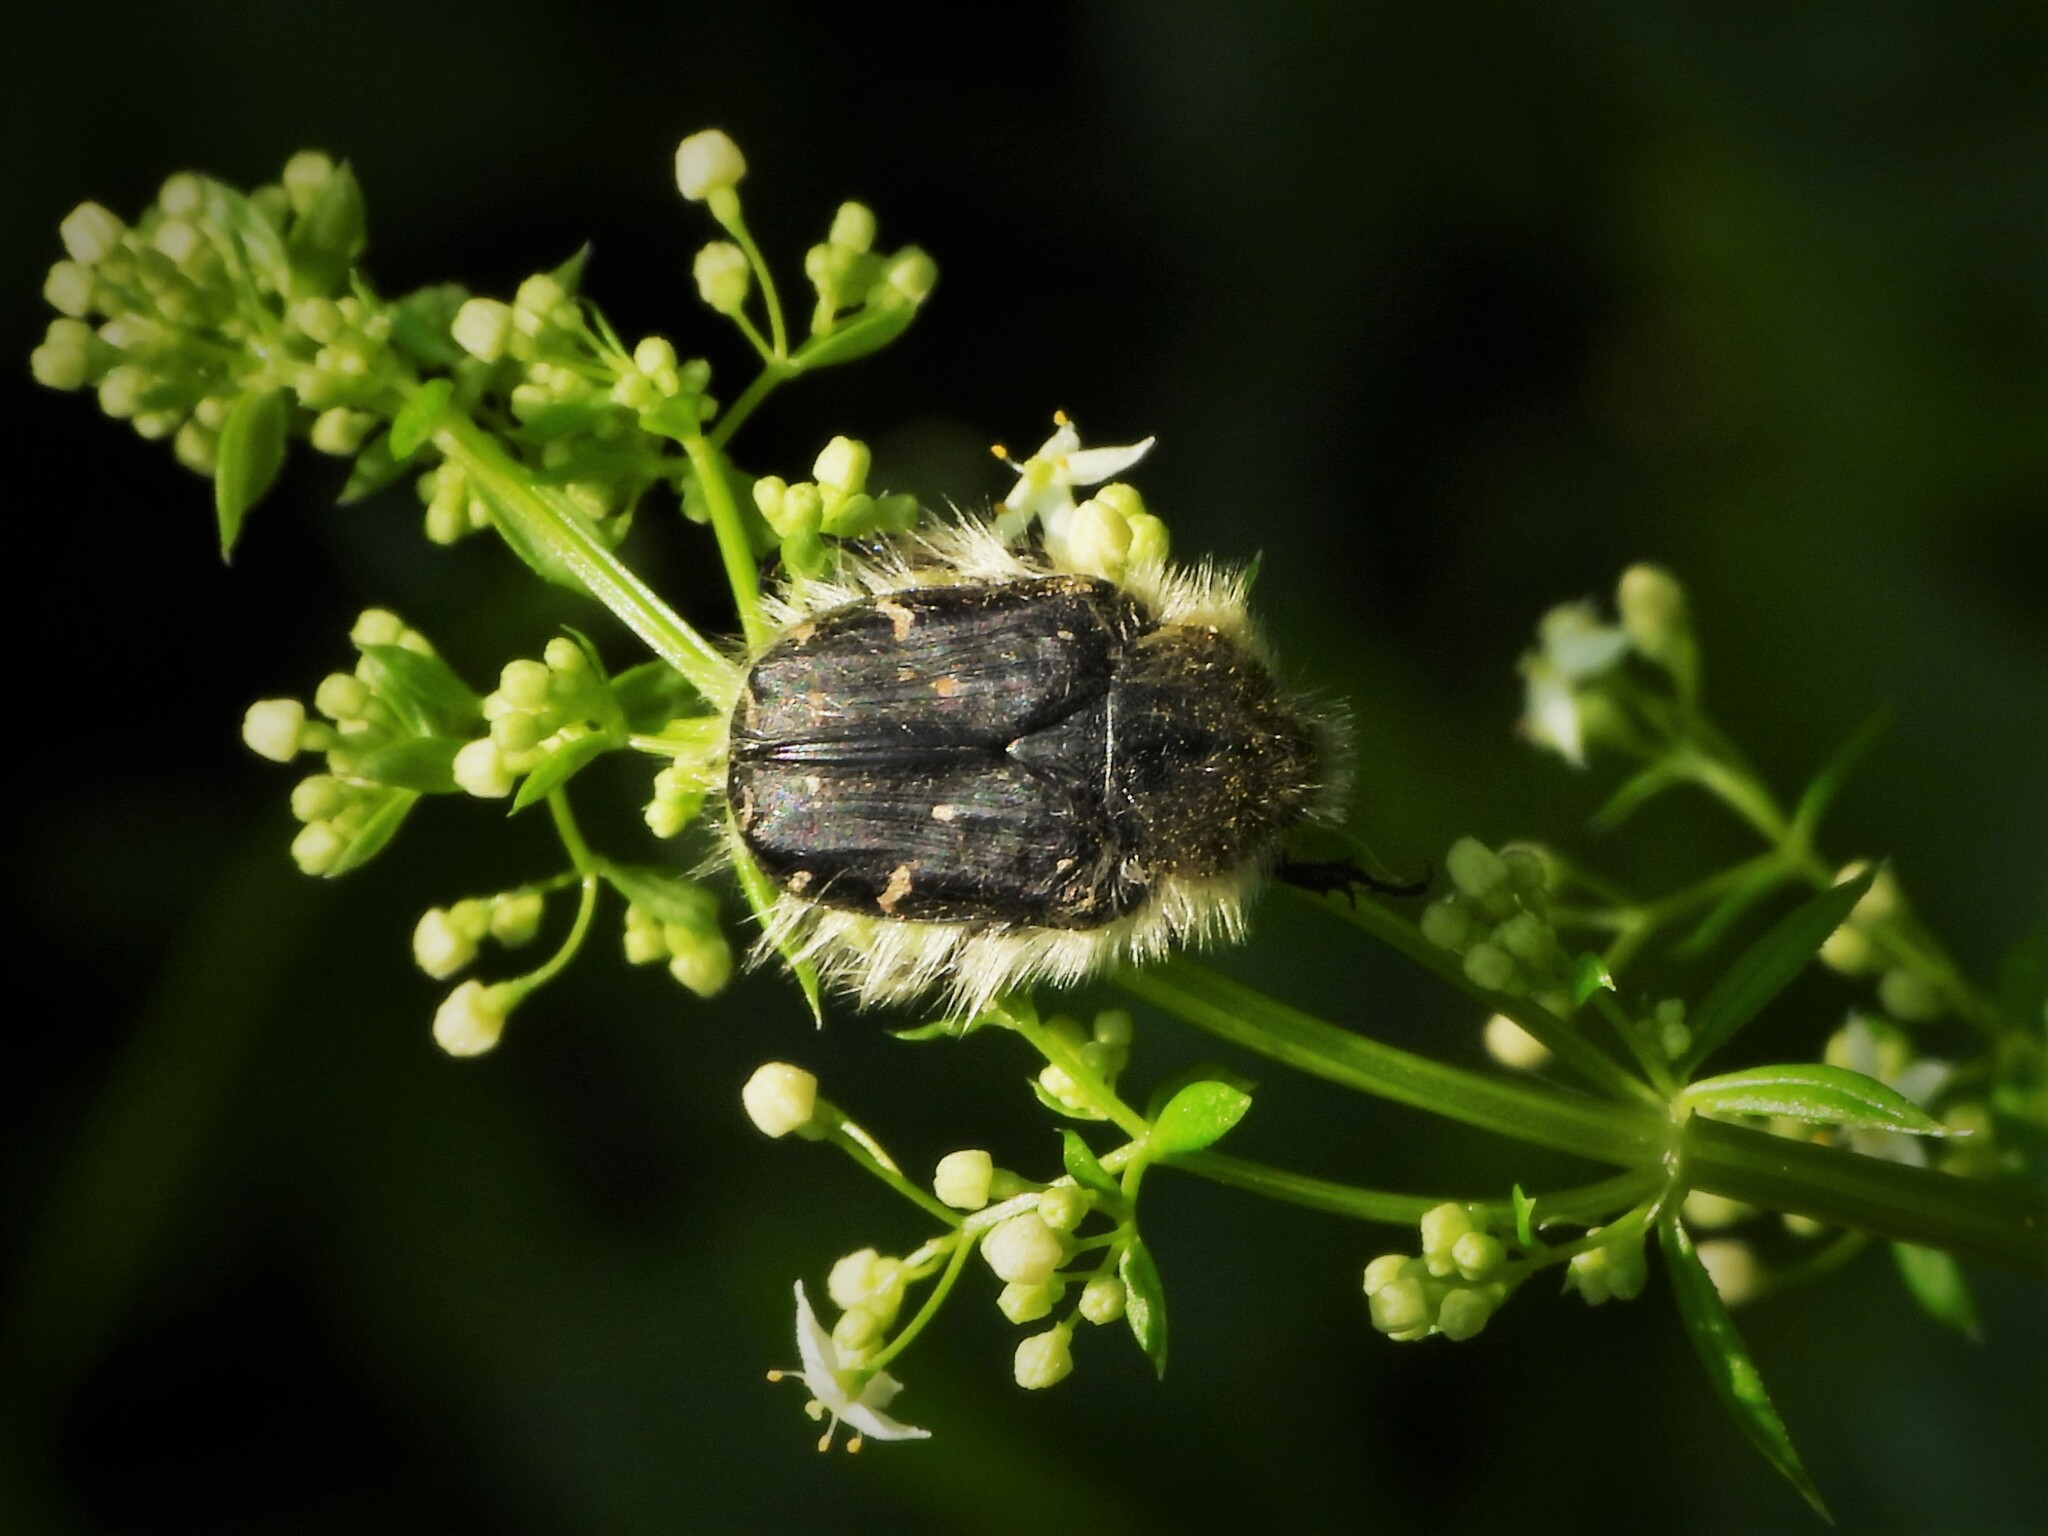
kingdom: Animalia
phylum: Arthropoda
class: Insecta
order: Coleoptera
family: Scarabaeidae
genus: Tropinota
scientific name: Tropinota hirta
